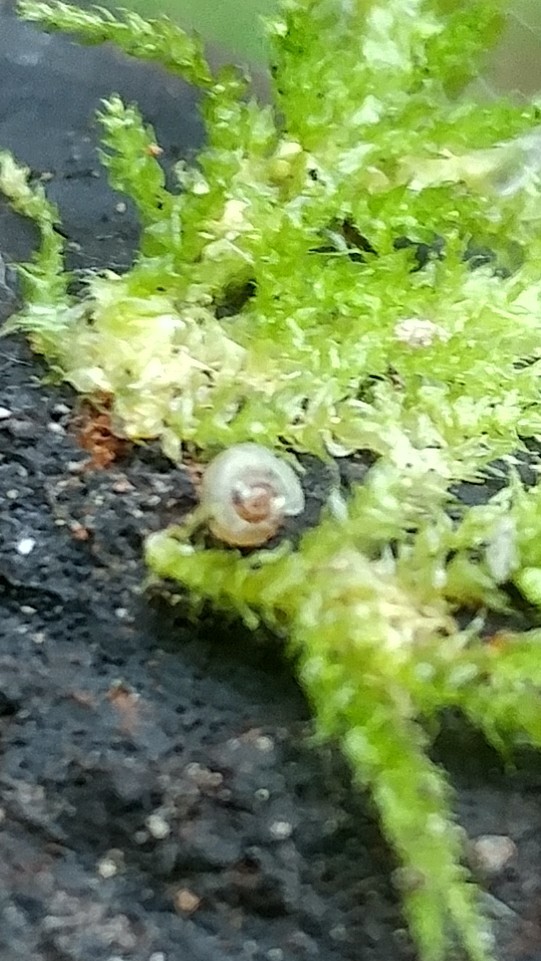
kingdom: Animalia
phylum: Mollusca
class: Gastropoda
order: Stylommatophora
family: Gastrodontidae
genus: Striatura
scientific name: Striatura pugetensis
